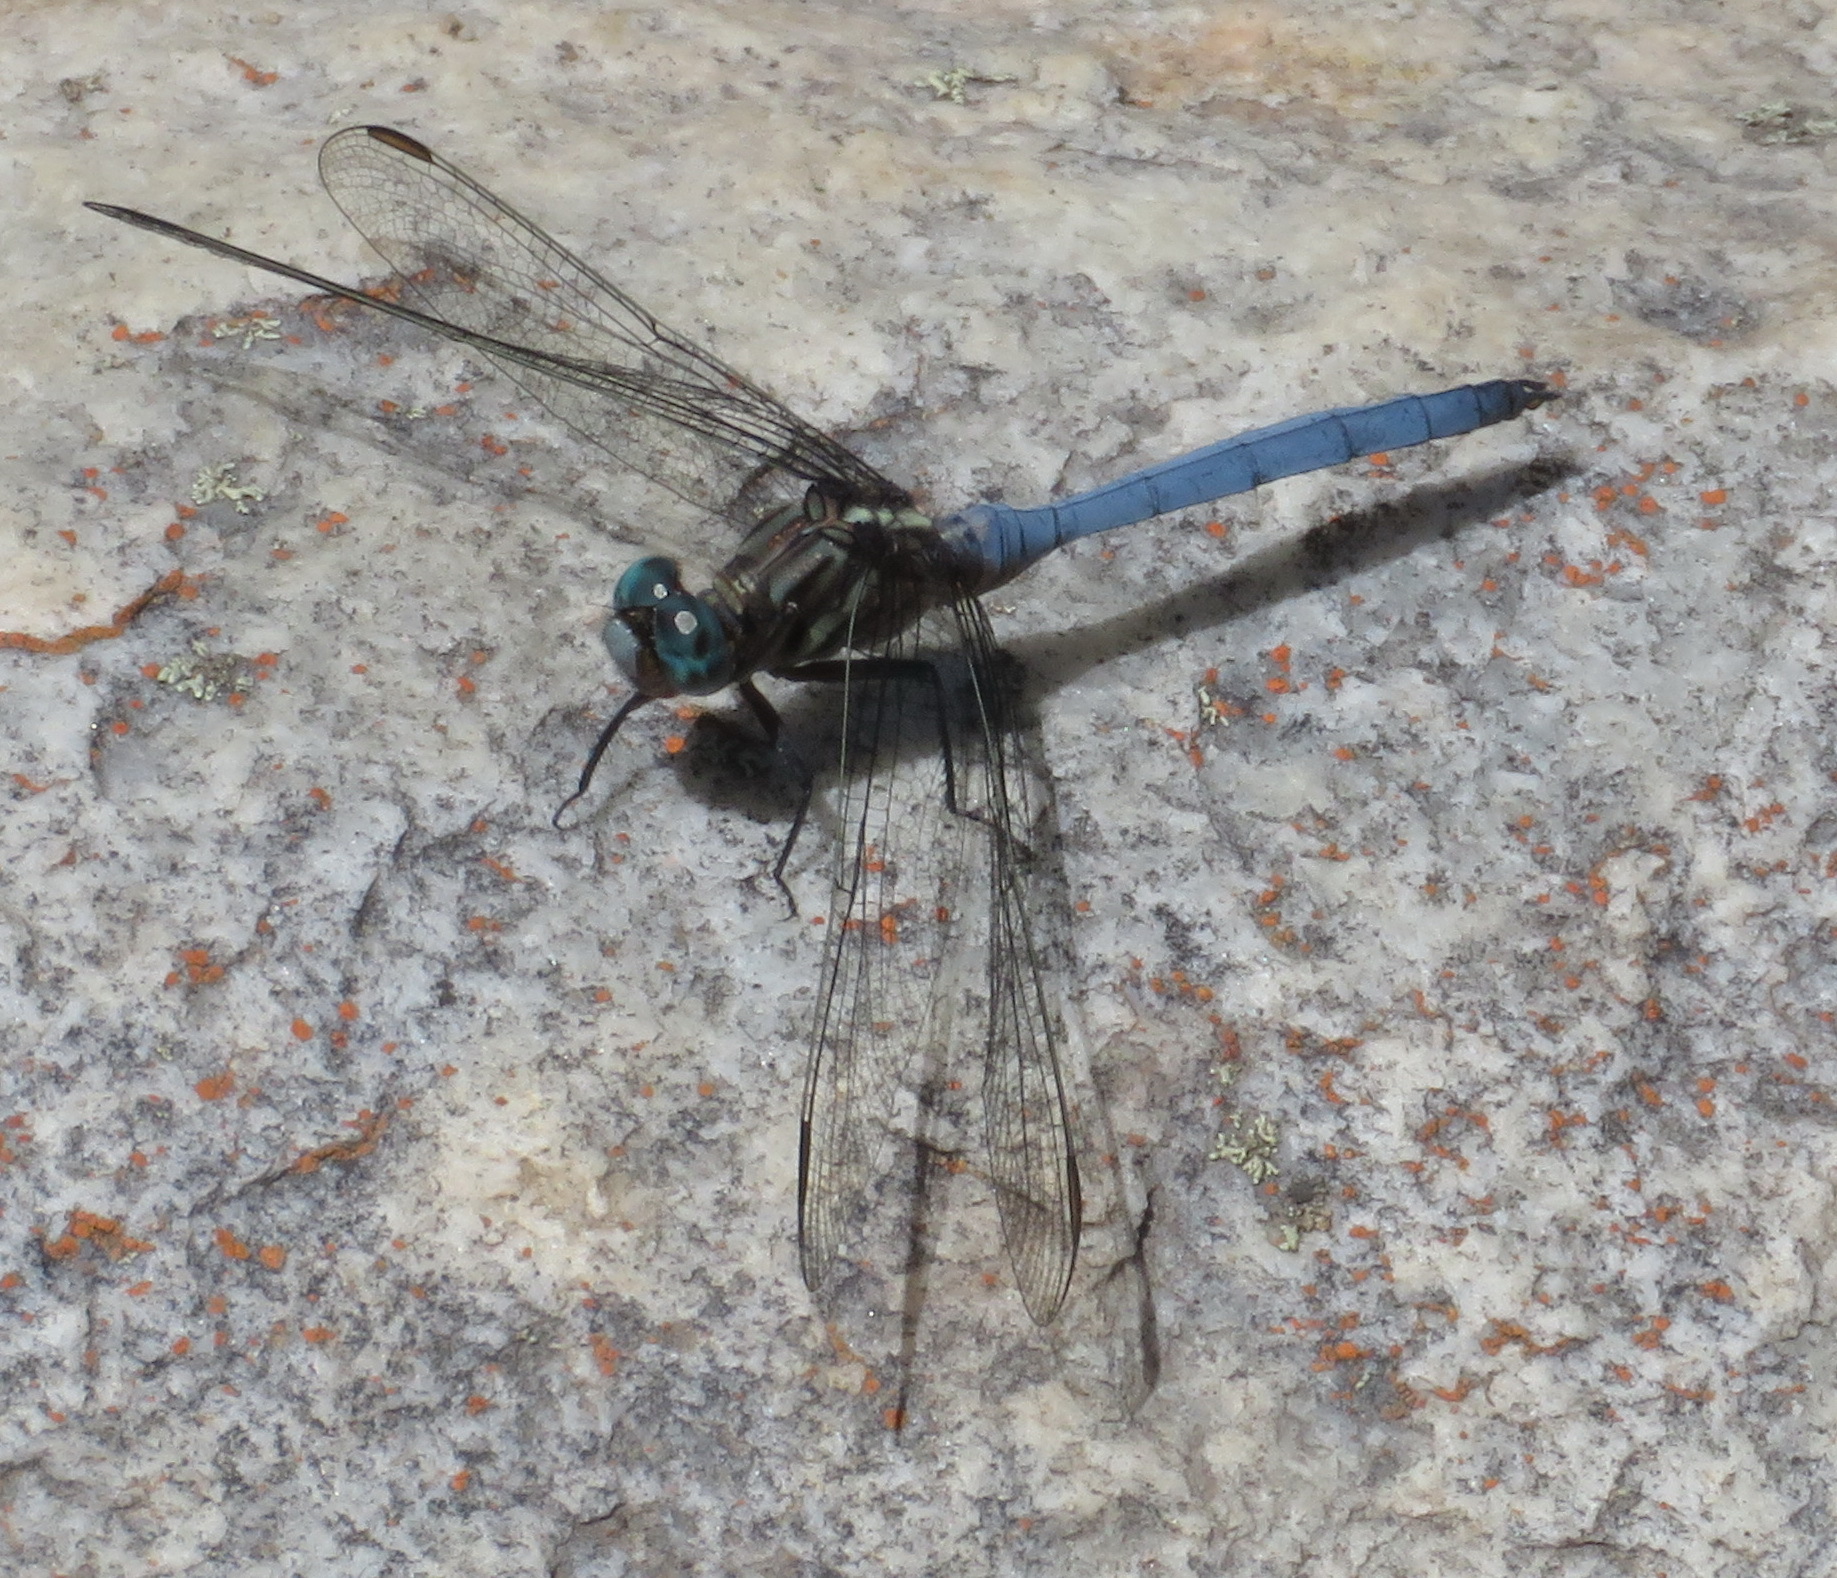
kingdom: Animalia
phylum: Arthropoda
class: Insecta
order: Odonata
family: Libellulidae
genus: Orthetrum
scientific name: Orthetrum julia
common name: Julia skimmer
